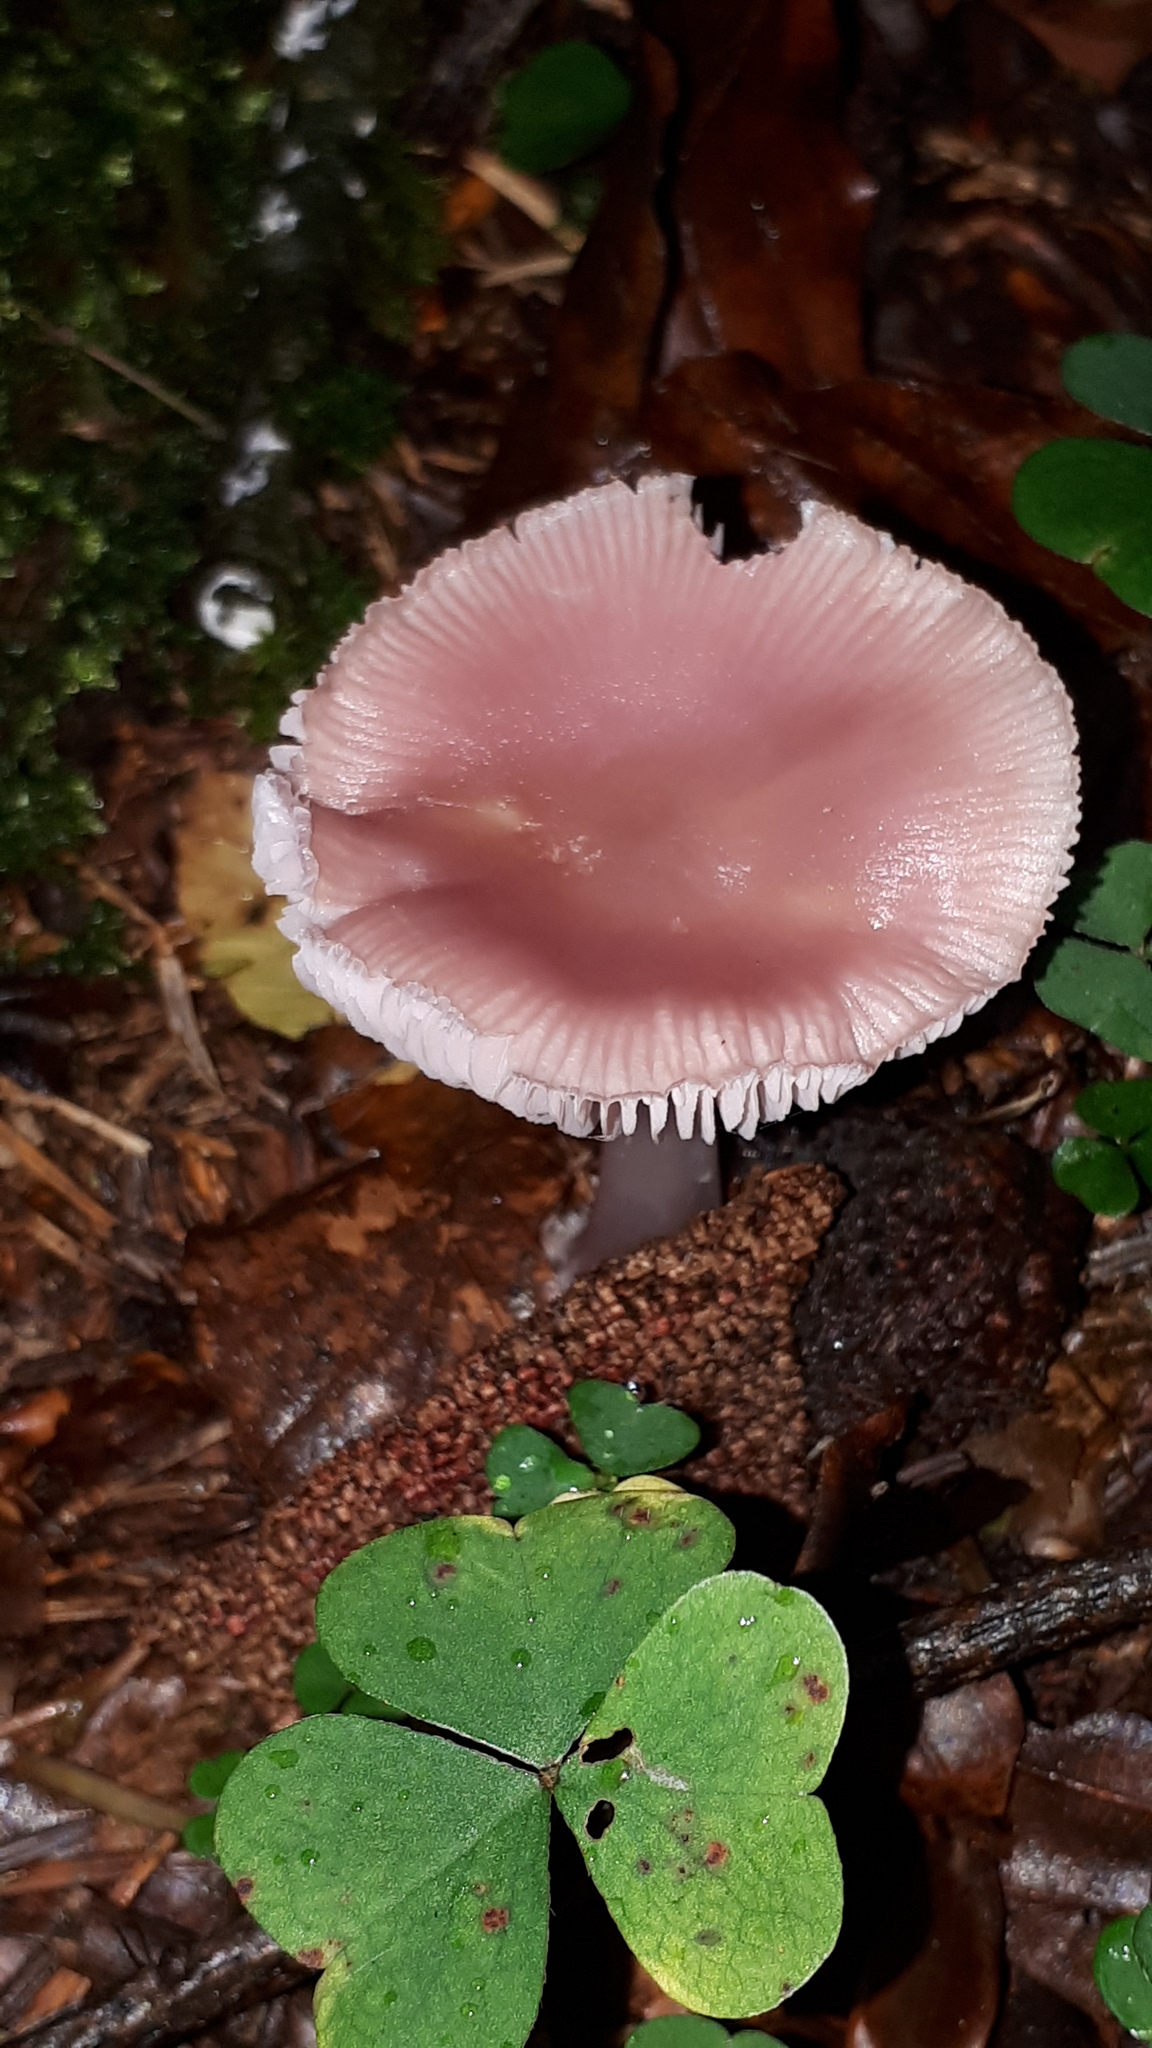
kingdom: Fungi
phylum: Basidiomycota
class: Agaricomycetes
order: Agaricales
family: Mycenaceae
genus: Mycena
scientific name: Mycena rosea
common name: Rosy bonnet
